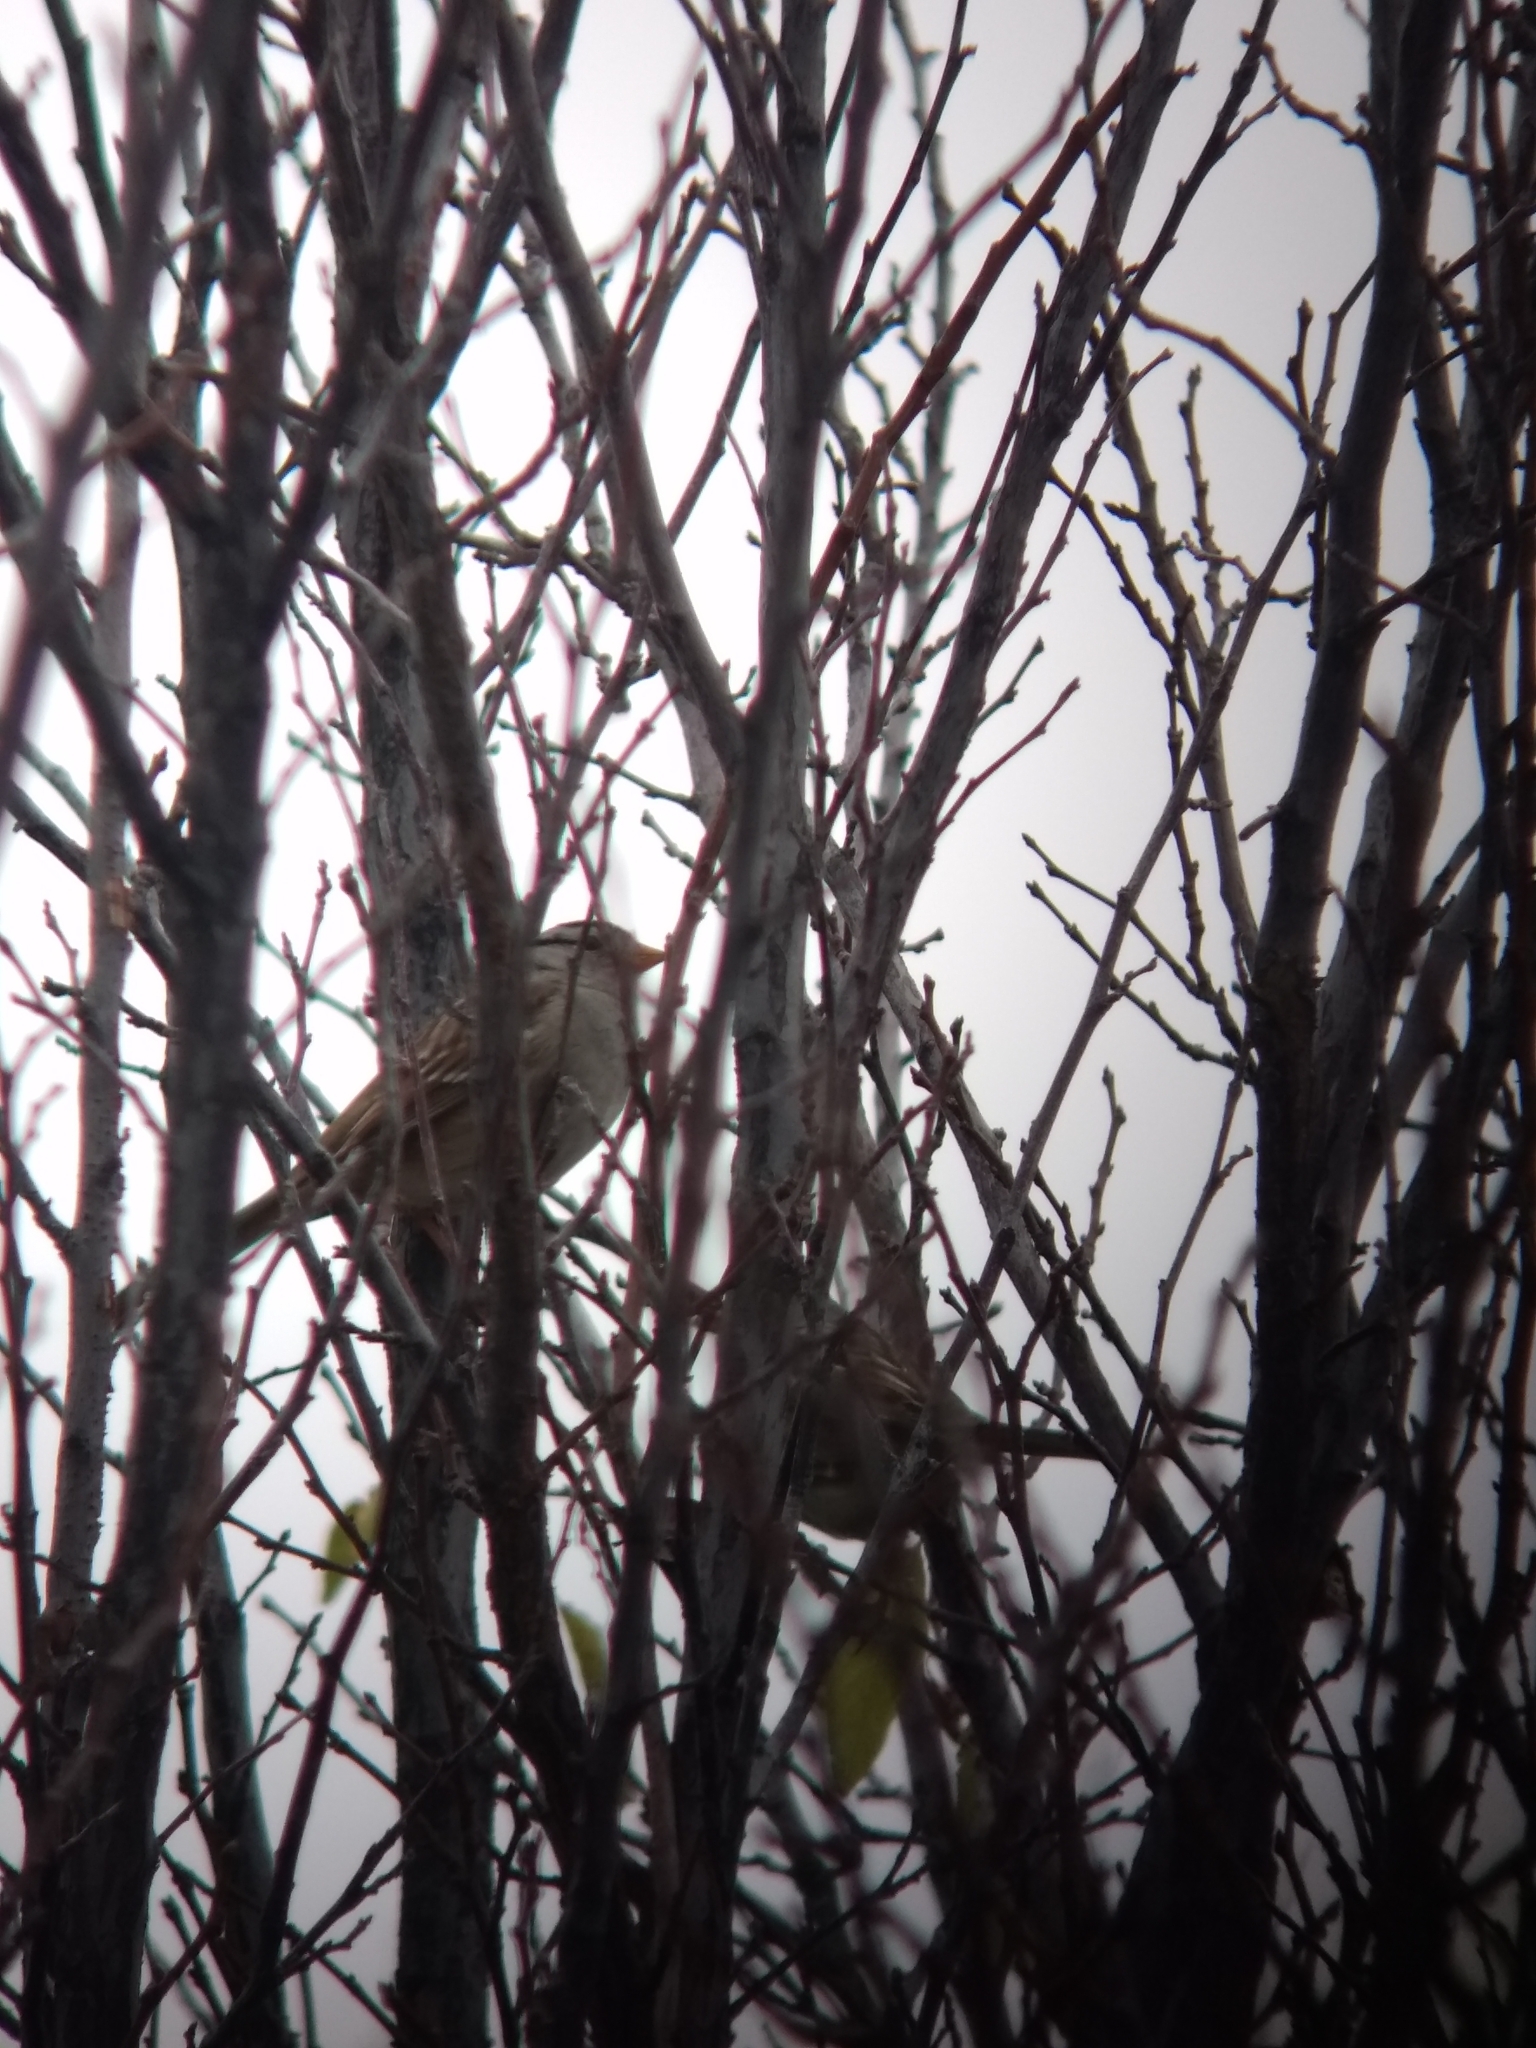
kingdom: Animalia
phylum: Chordata
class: Aves
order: Passeriformes
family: Passerellidae
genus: Zonotrichia
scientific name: Zonotrichia leucophrys
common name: White-crowned sparrow
